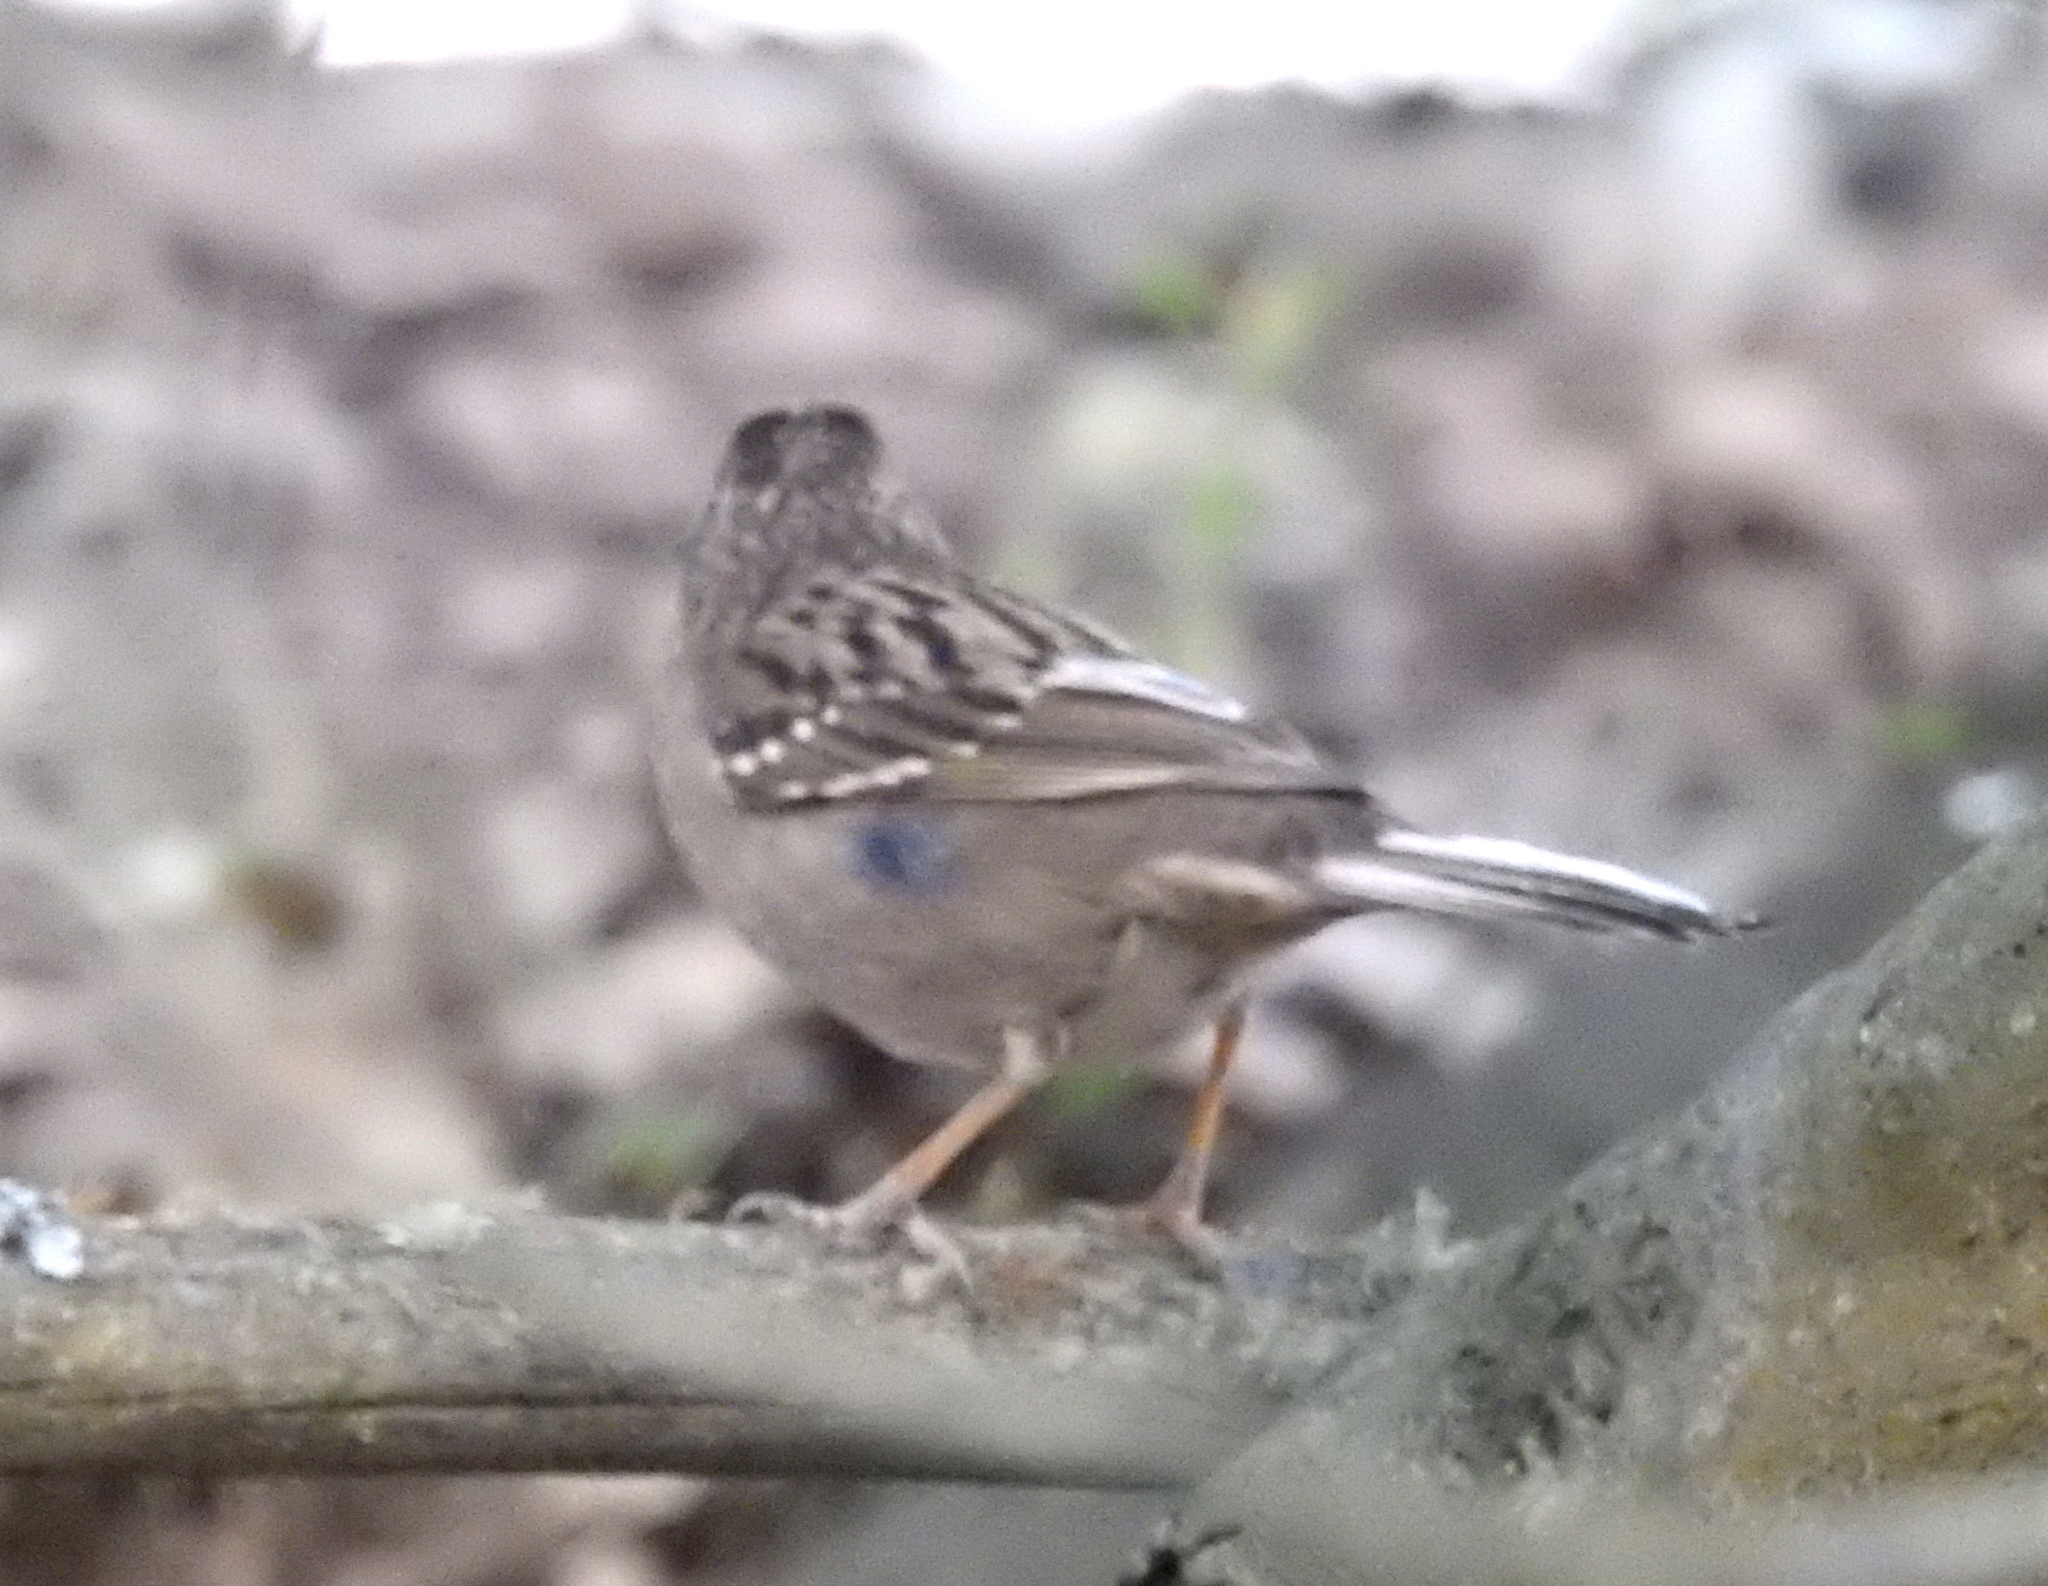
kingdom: Animalia
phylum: Chordata
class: Aves
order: Passeriformes
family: Passerellidae
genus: Zonotrichia
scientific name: Zonotrichia atricapilla
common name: Golden-crowned sparrow
